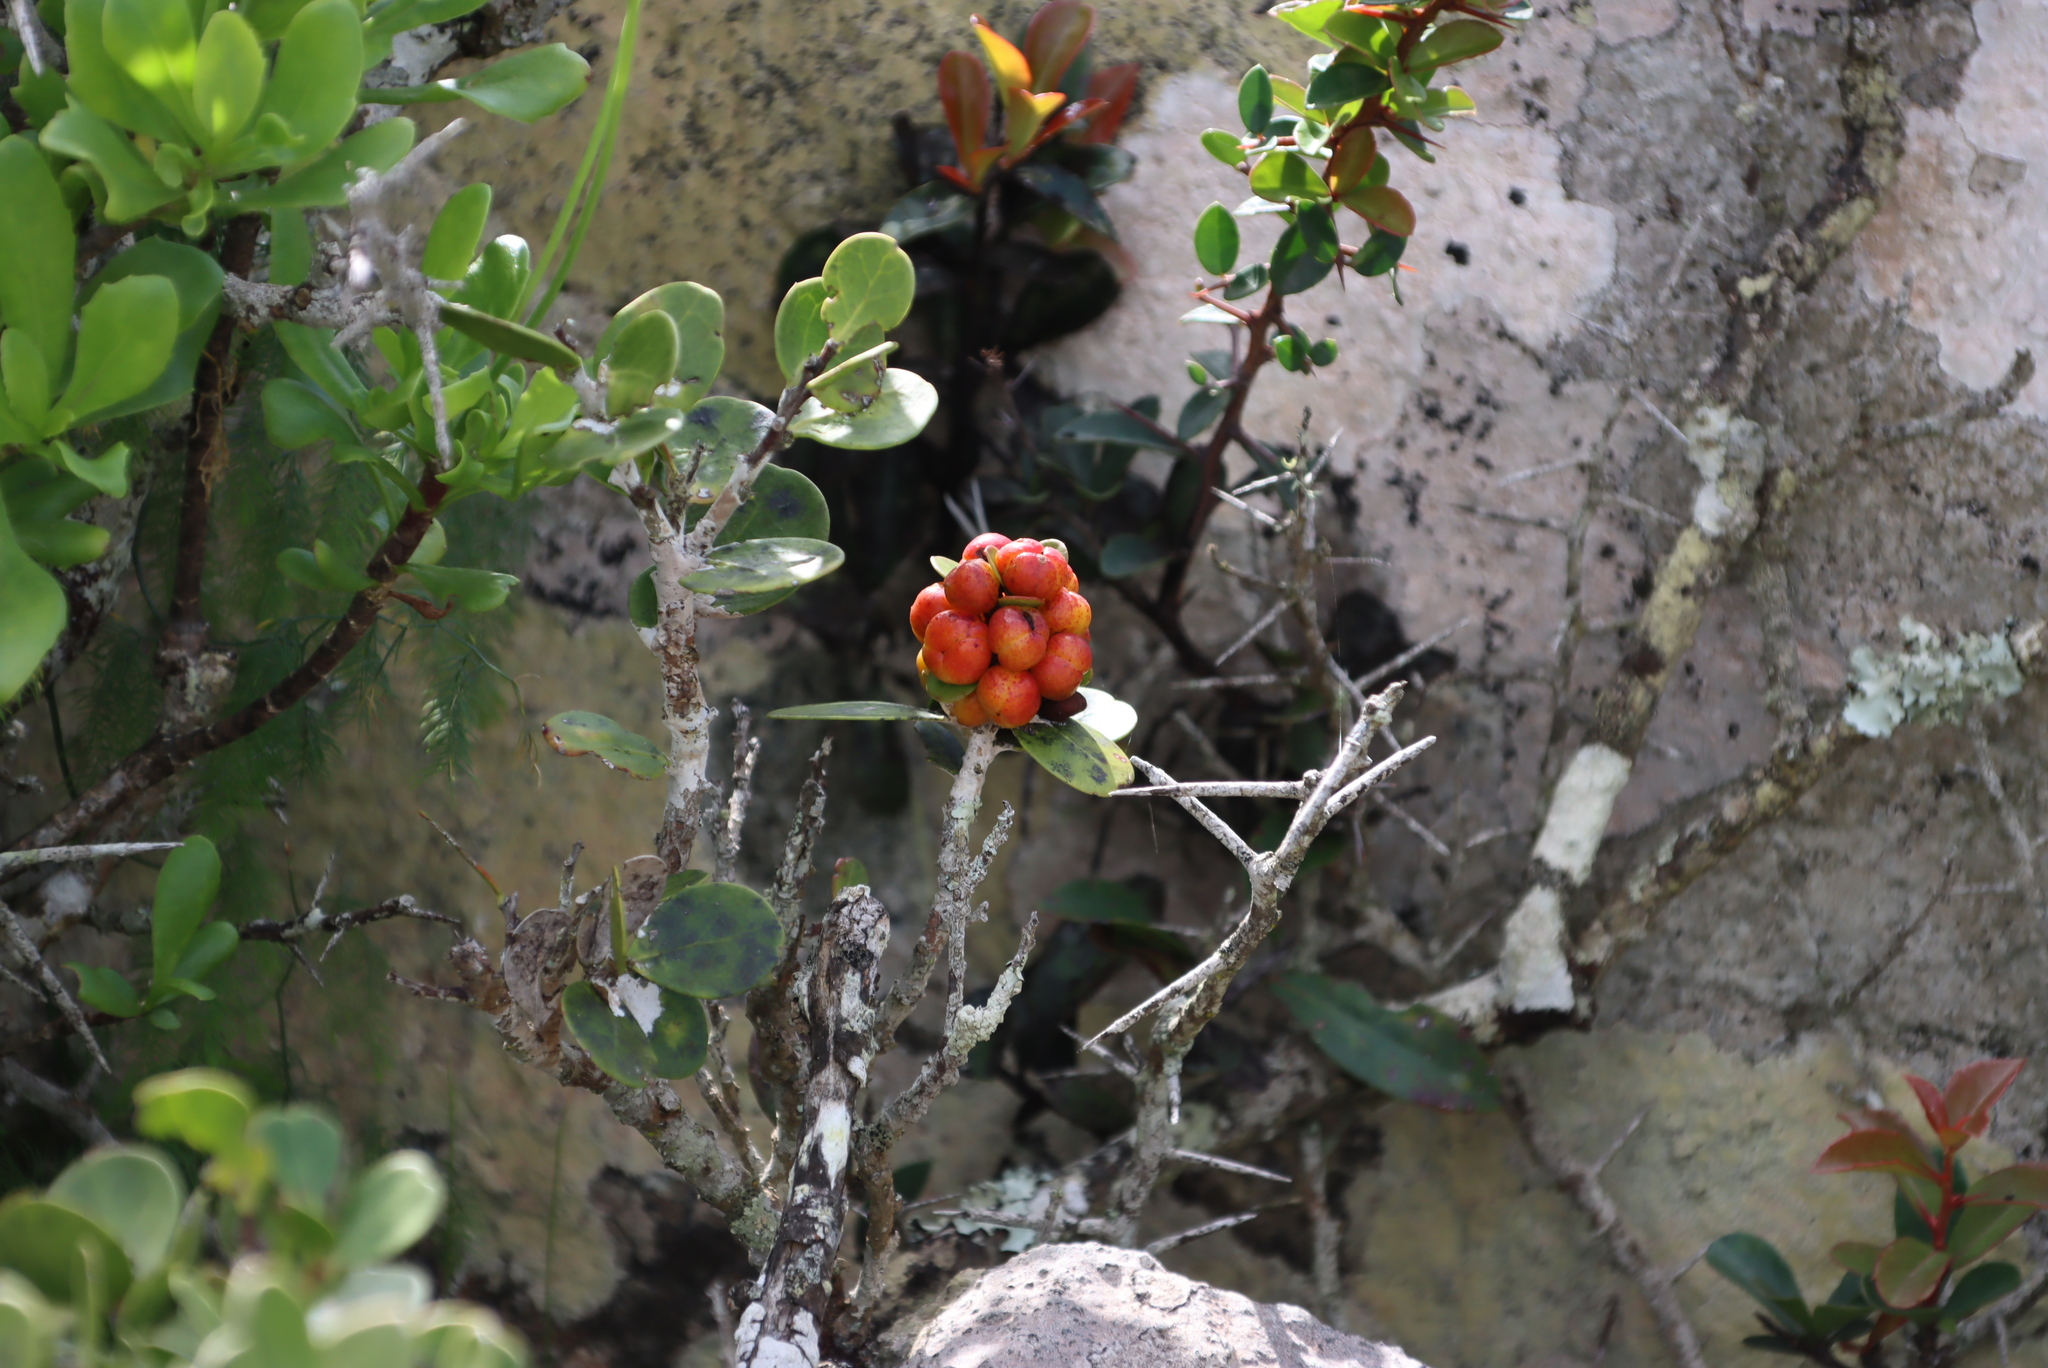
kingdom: Plantae
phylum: Tracheophyta
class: Magnoliopsida
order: Celastrales
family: Celastraceae
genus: Gymnosporia
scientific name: Gymnosporia lucida
